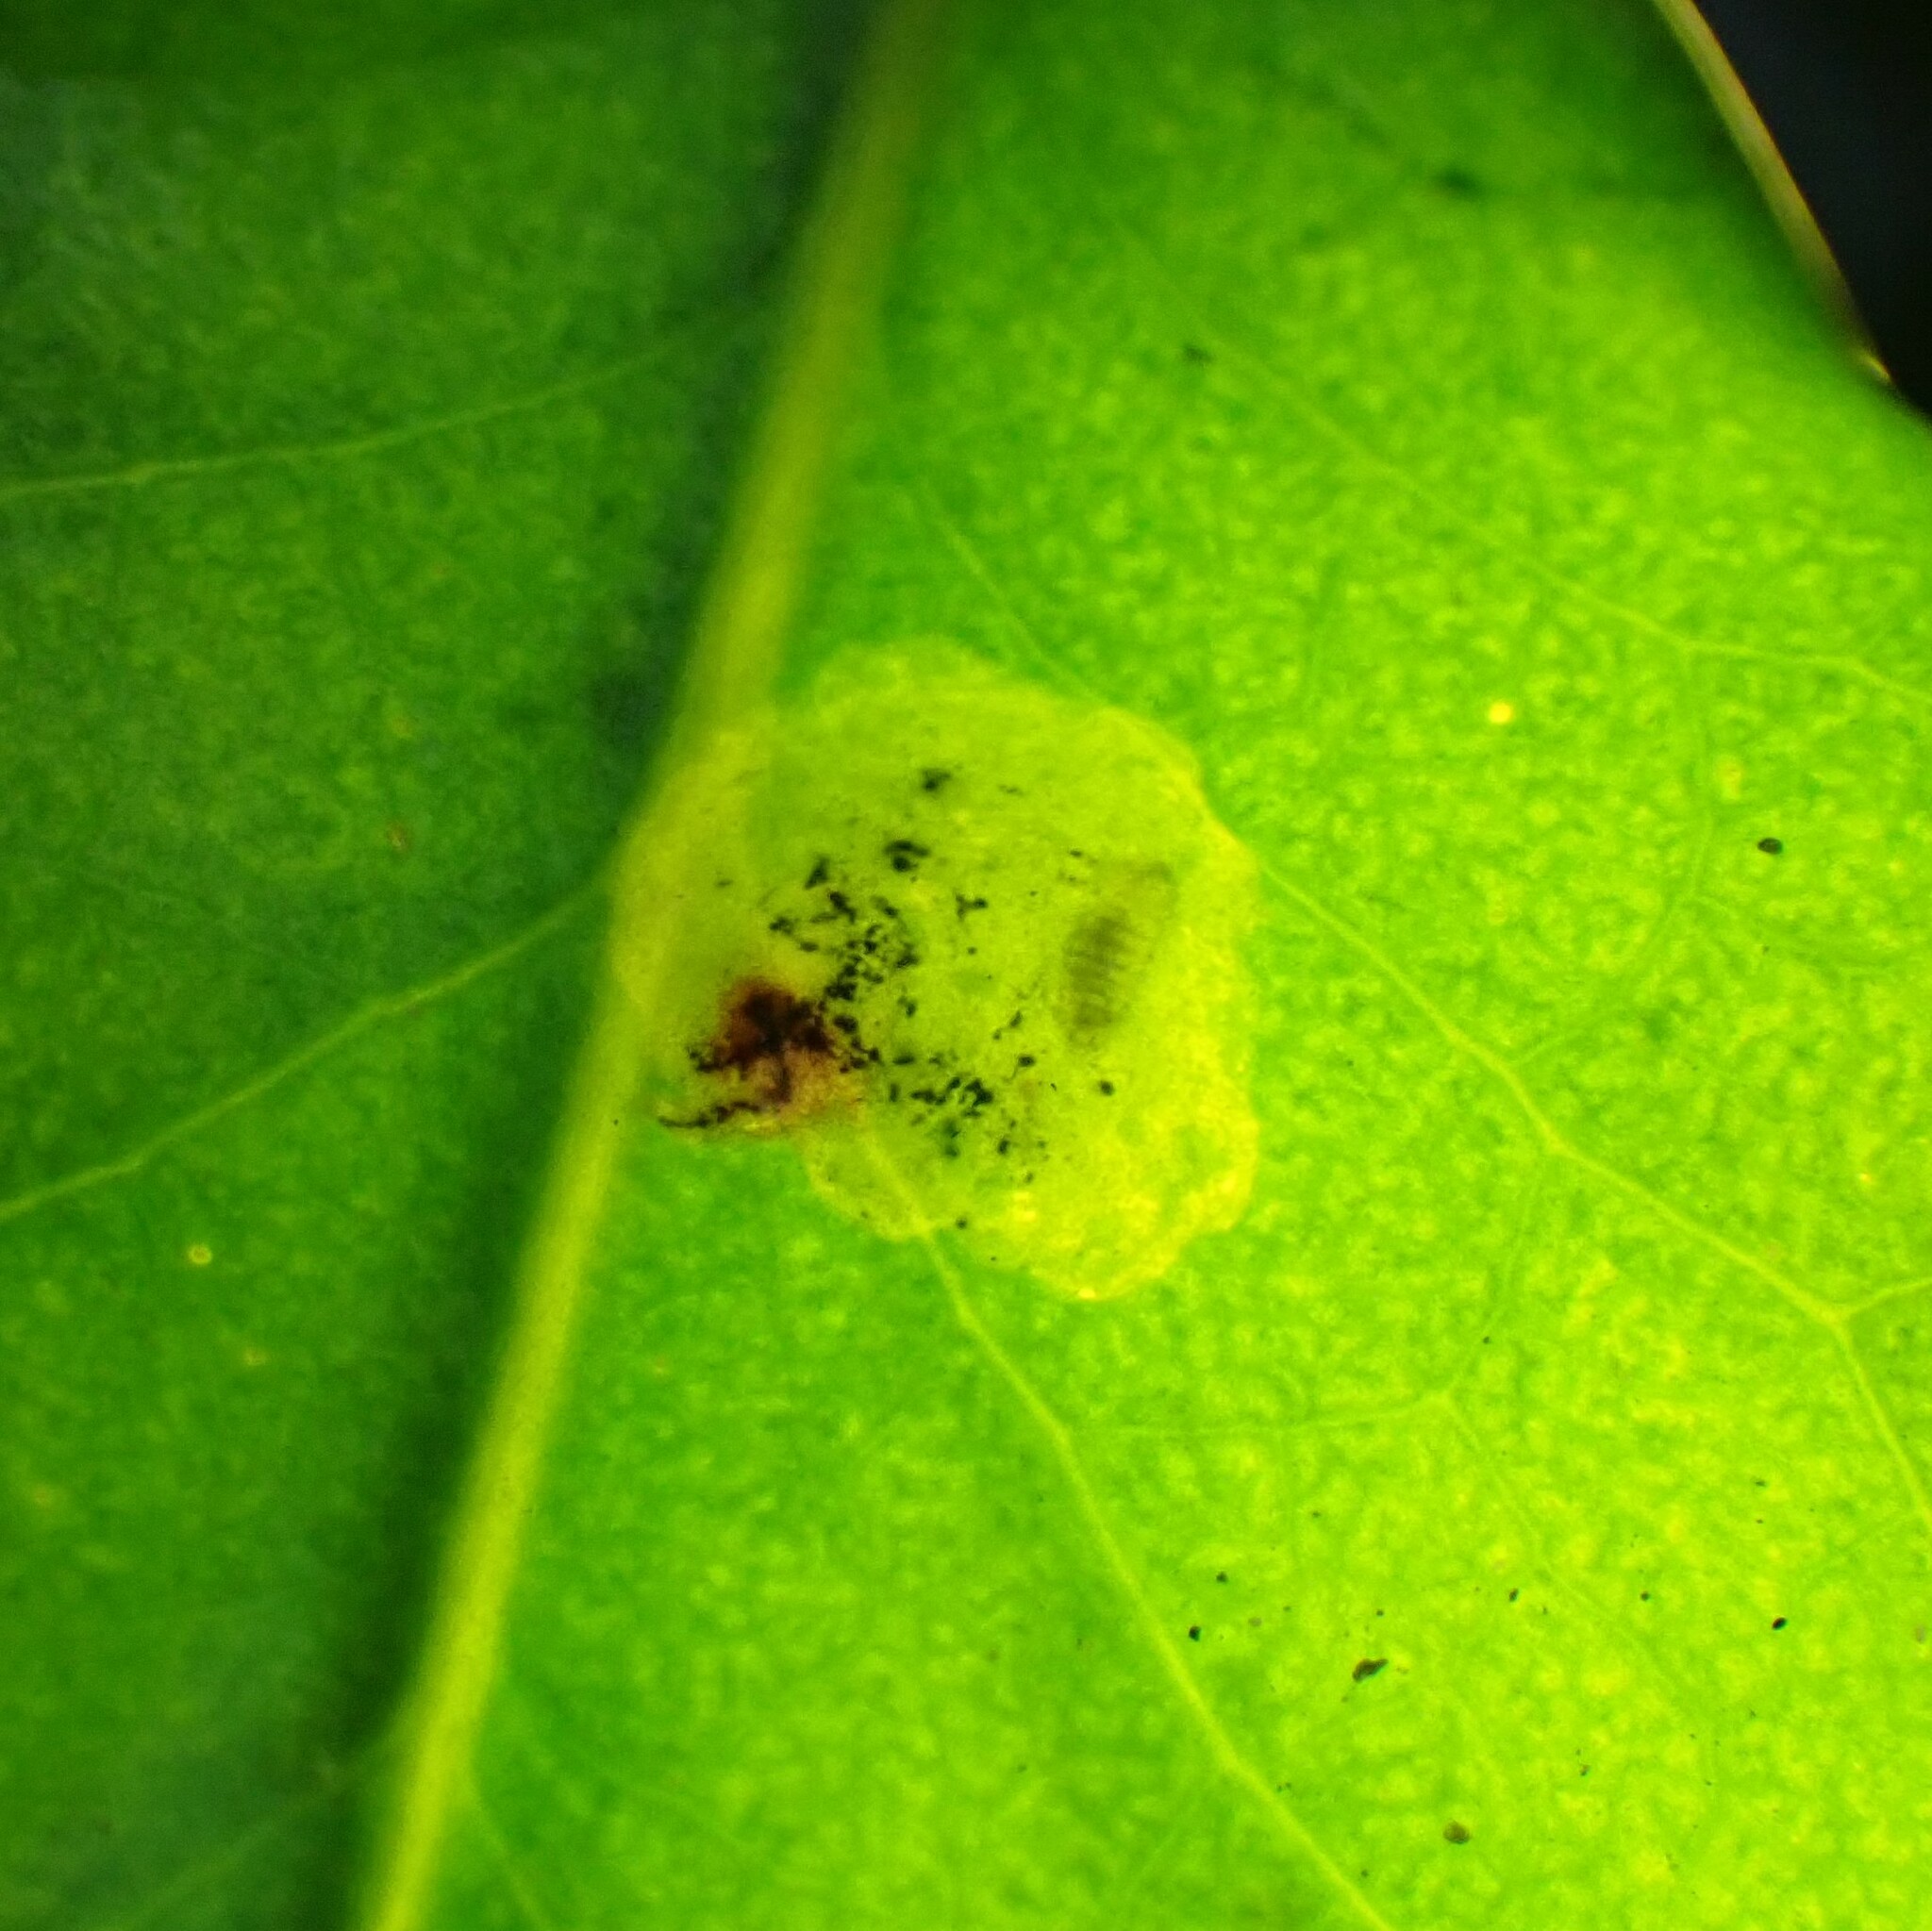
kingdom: Animalia
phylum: Arthropoda
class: Insecta
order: Diptera
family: Agromyzidae
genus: Phytomyza
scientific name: Phytomyza ilicis
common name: Holly leafminer
